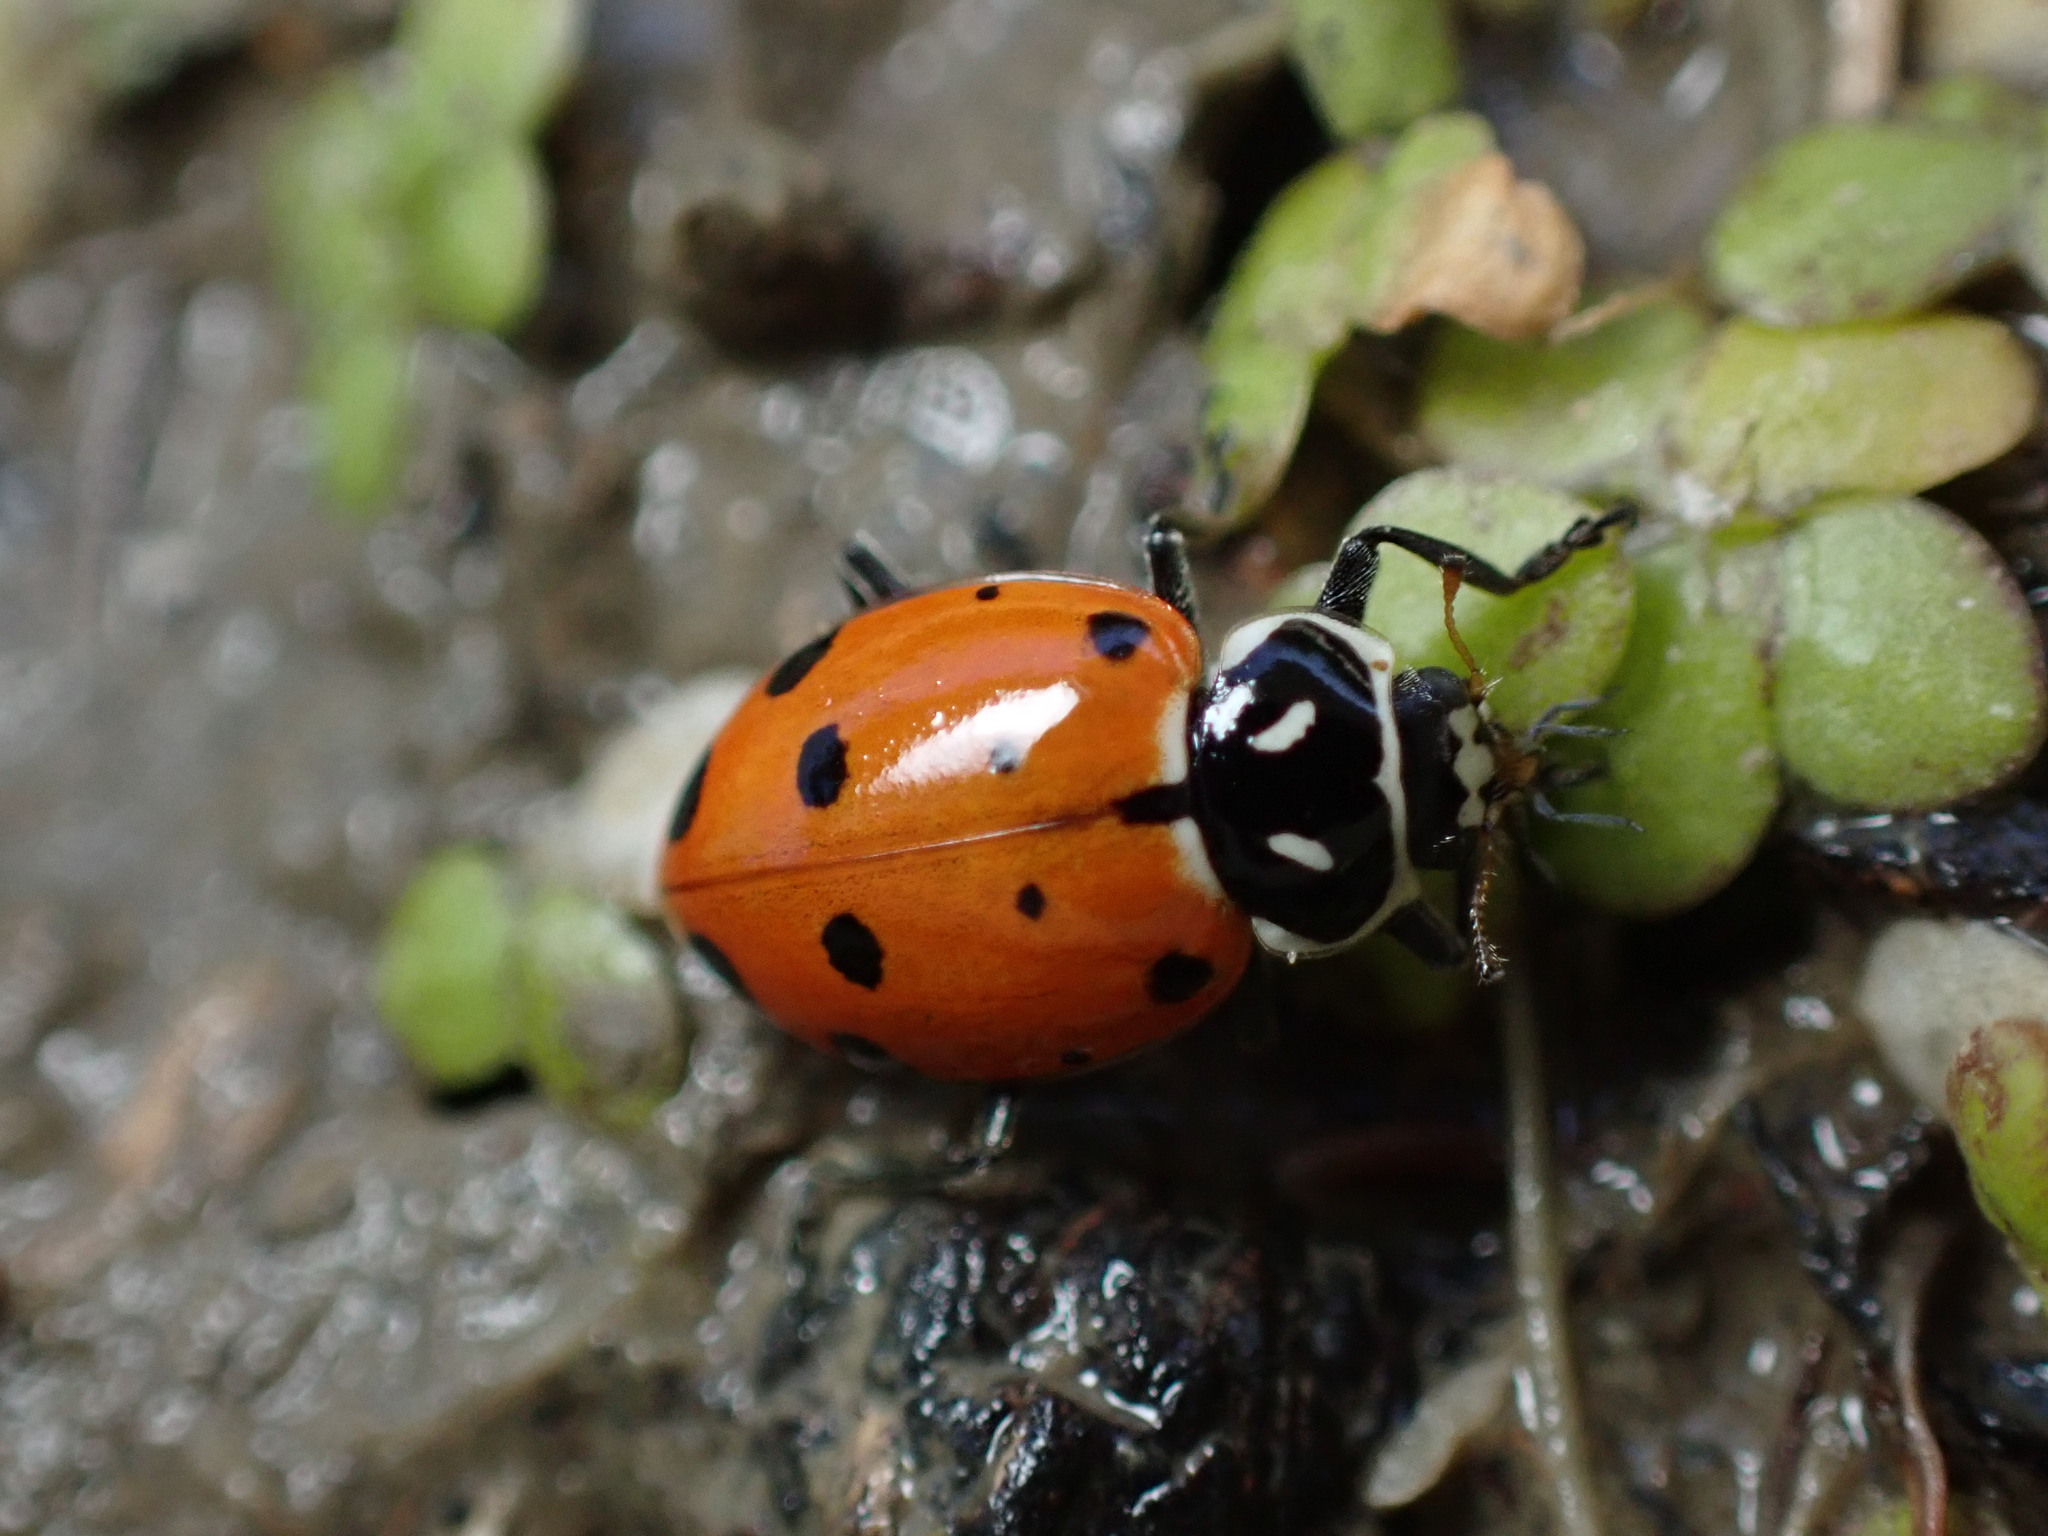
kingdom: Animalia
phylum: Arthropoda
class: Insecta
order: Coleoptera
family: Coccinellidae
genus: Hippodamia
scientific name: Hippodamia convergens
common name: Convergent lady beetle
